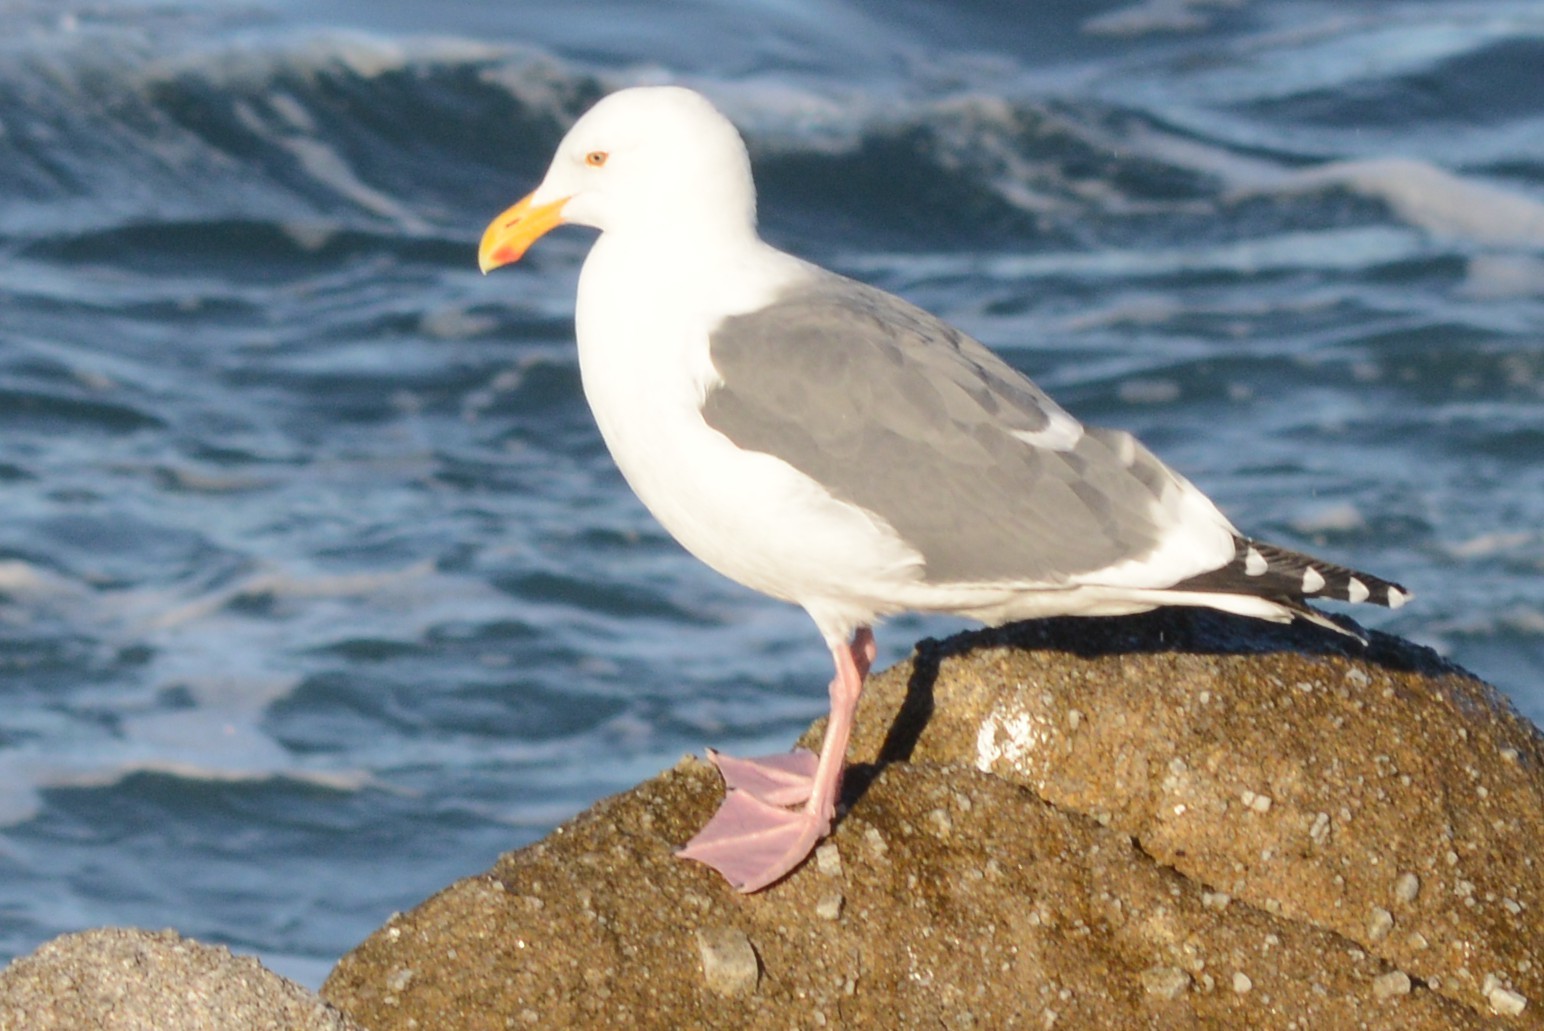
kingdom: Animalia
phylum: Chordata
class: Aves
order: Charadriiformes
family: Laridae
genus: Larus
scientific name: Larus occidentalis
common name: Western gull
